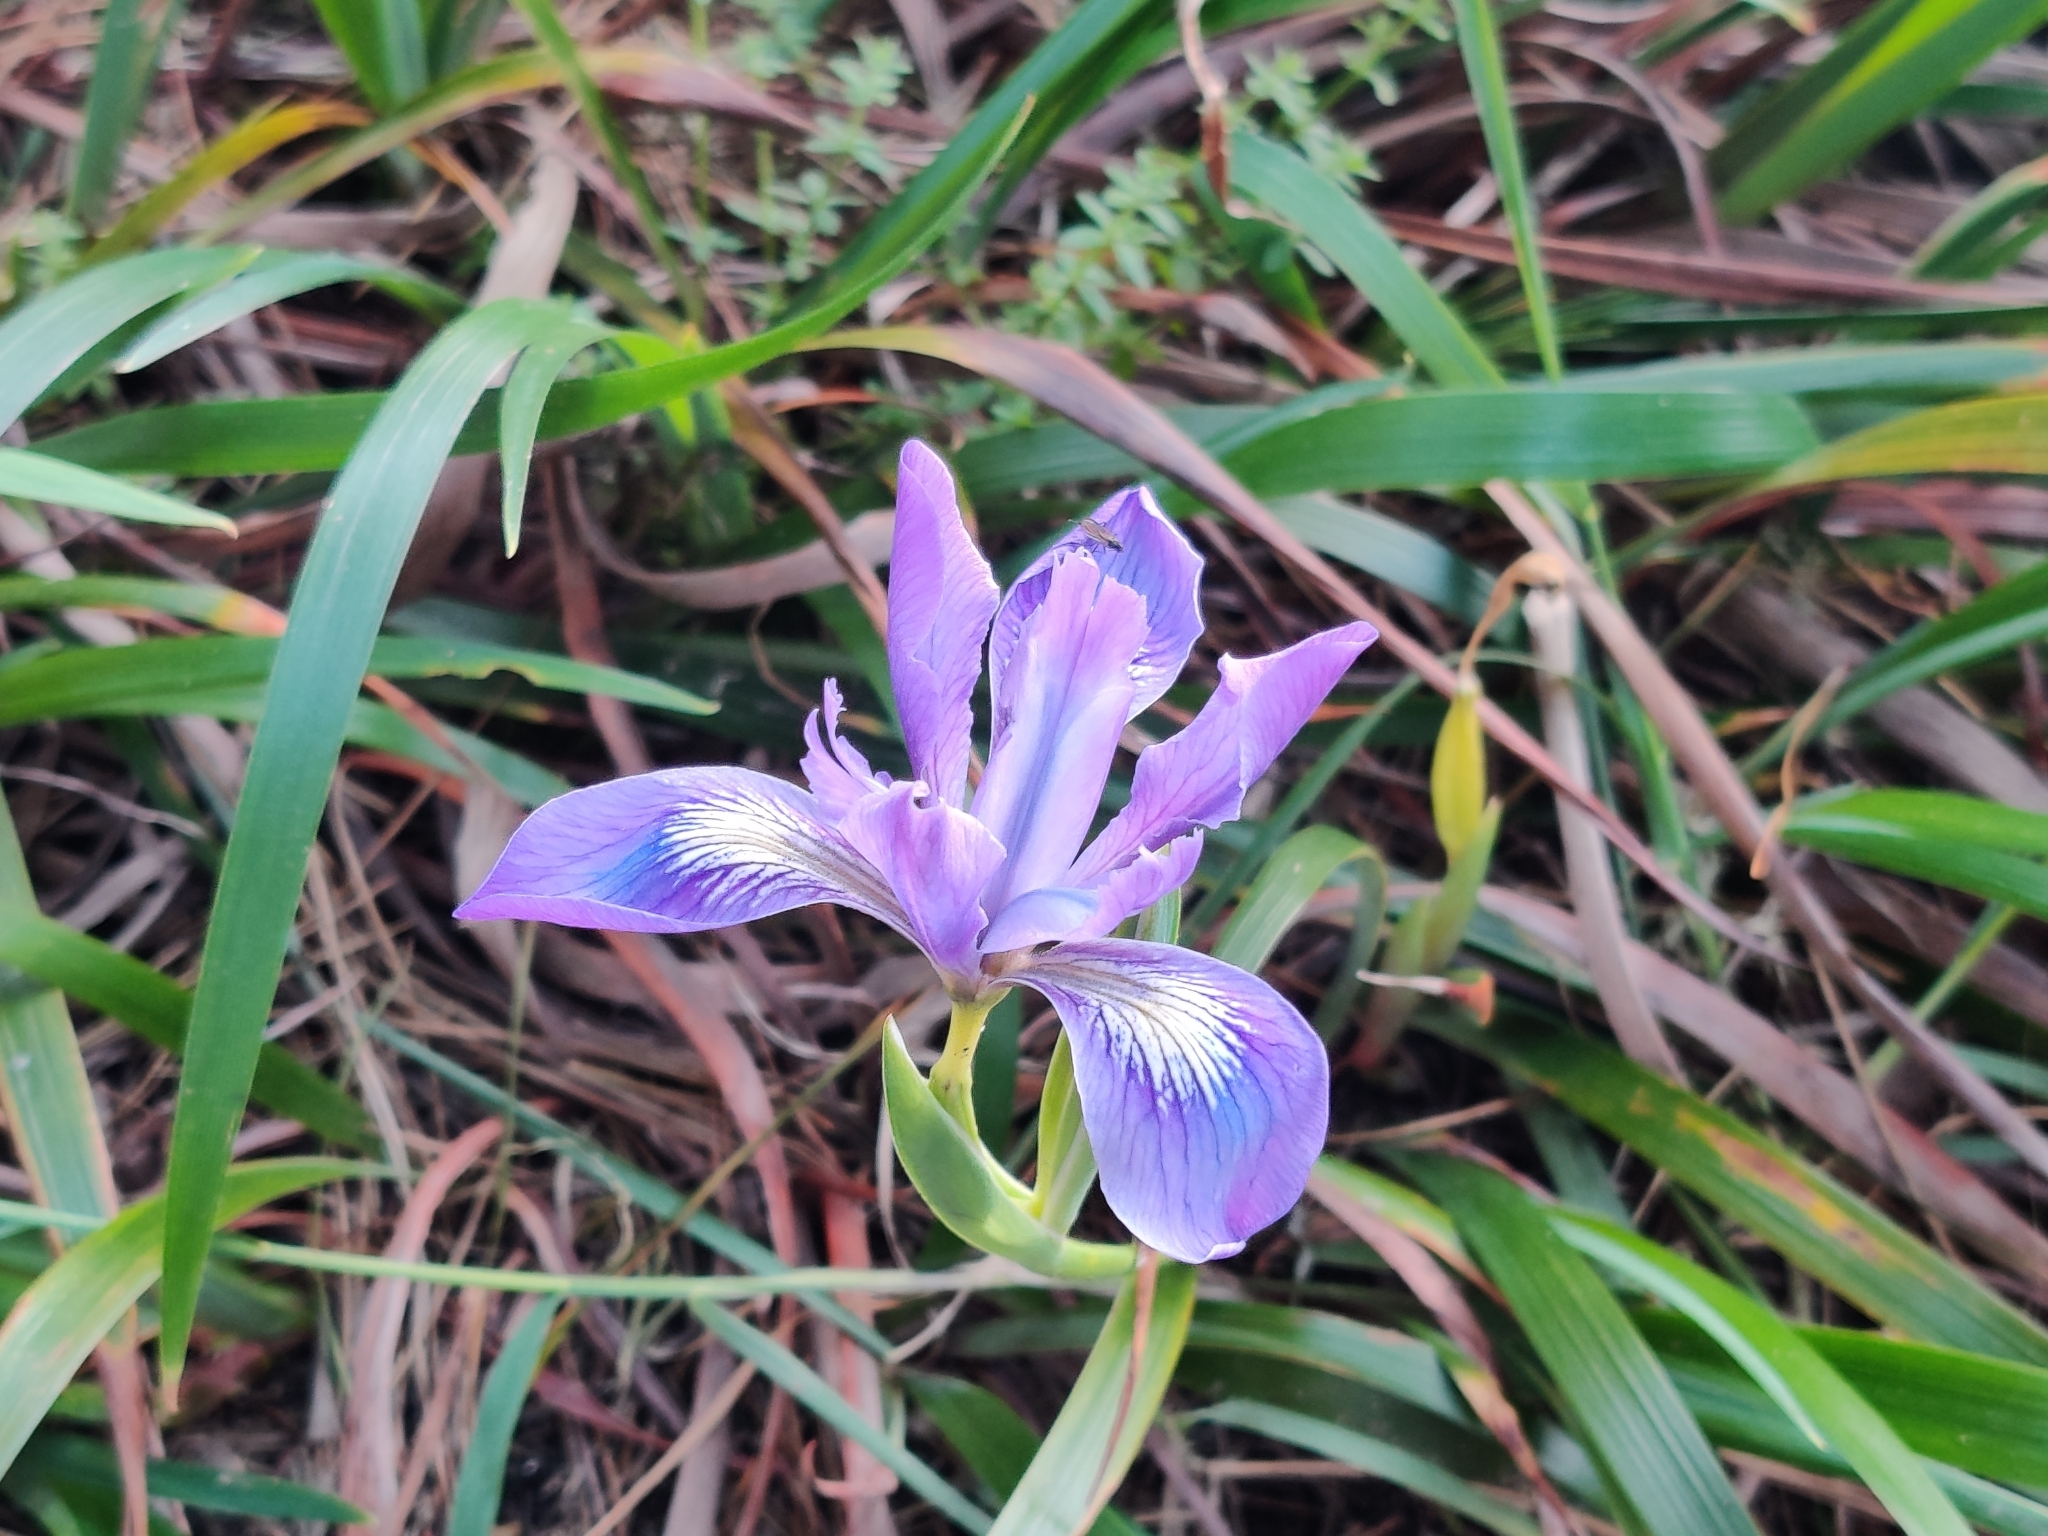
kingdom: Plantae
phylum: Tracheophyta
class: Liliopsida
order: Asparagales
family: Iridaceae
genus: Iris
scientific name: Iris douglasiana
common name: Marin iris
